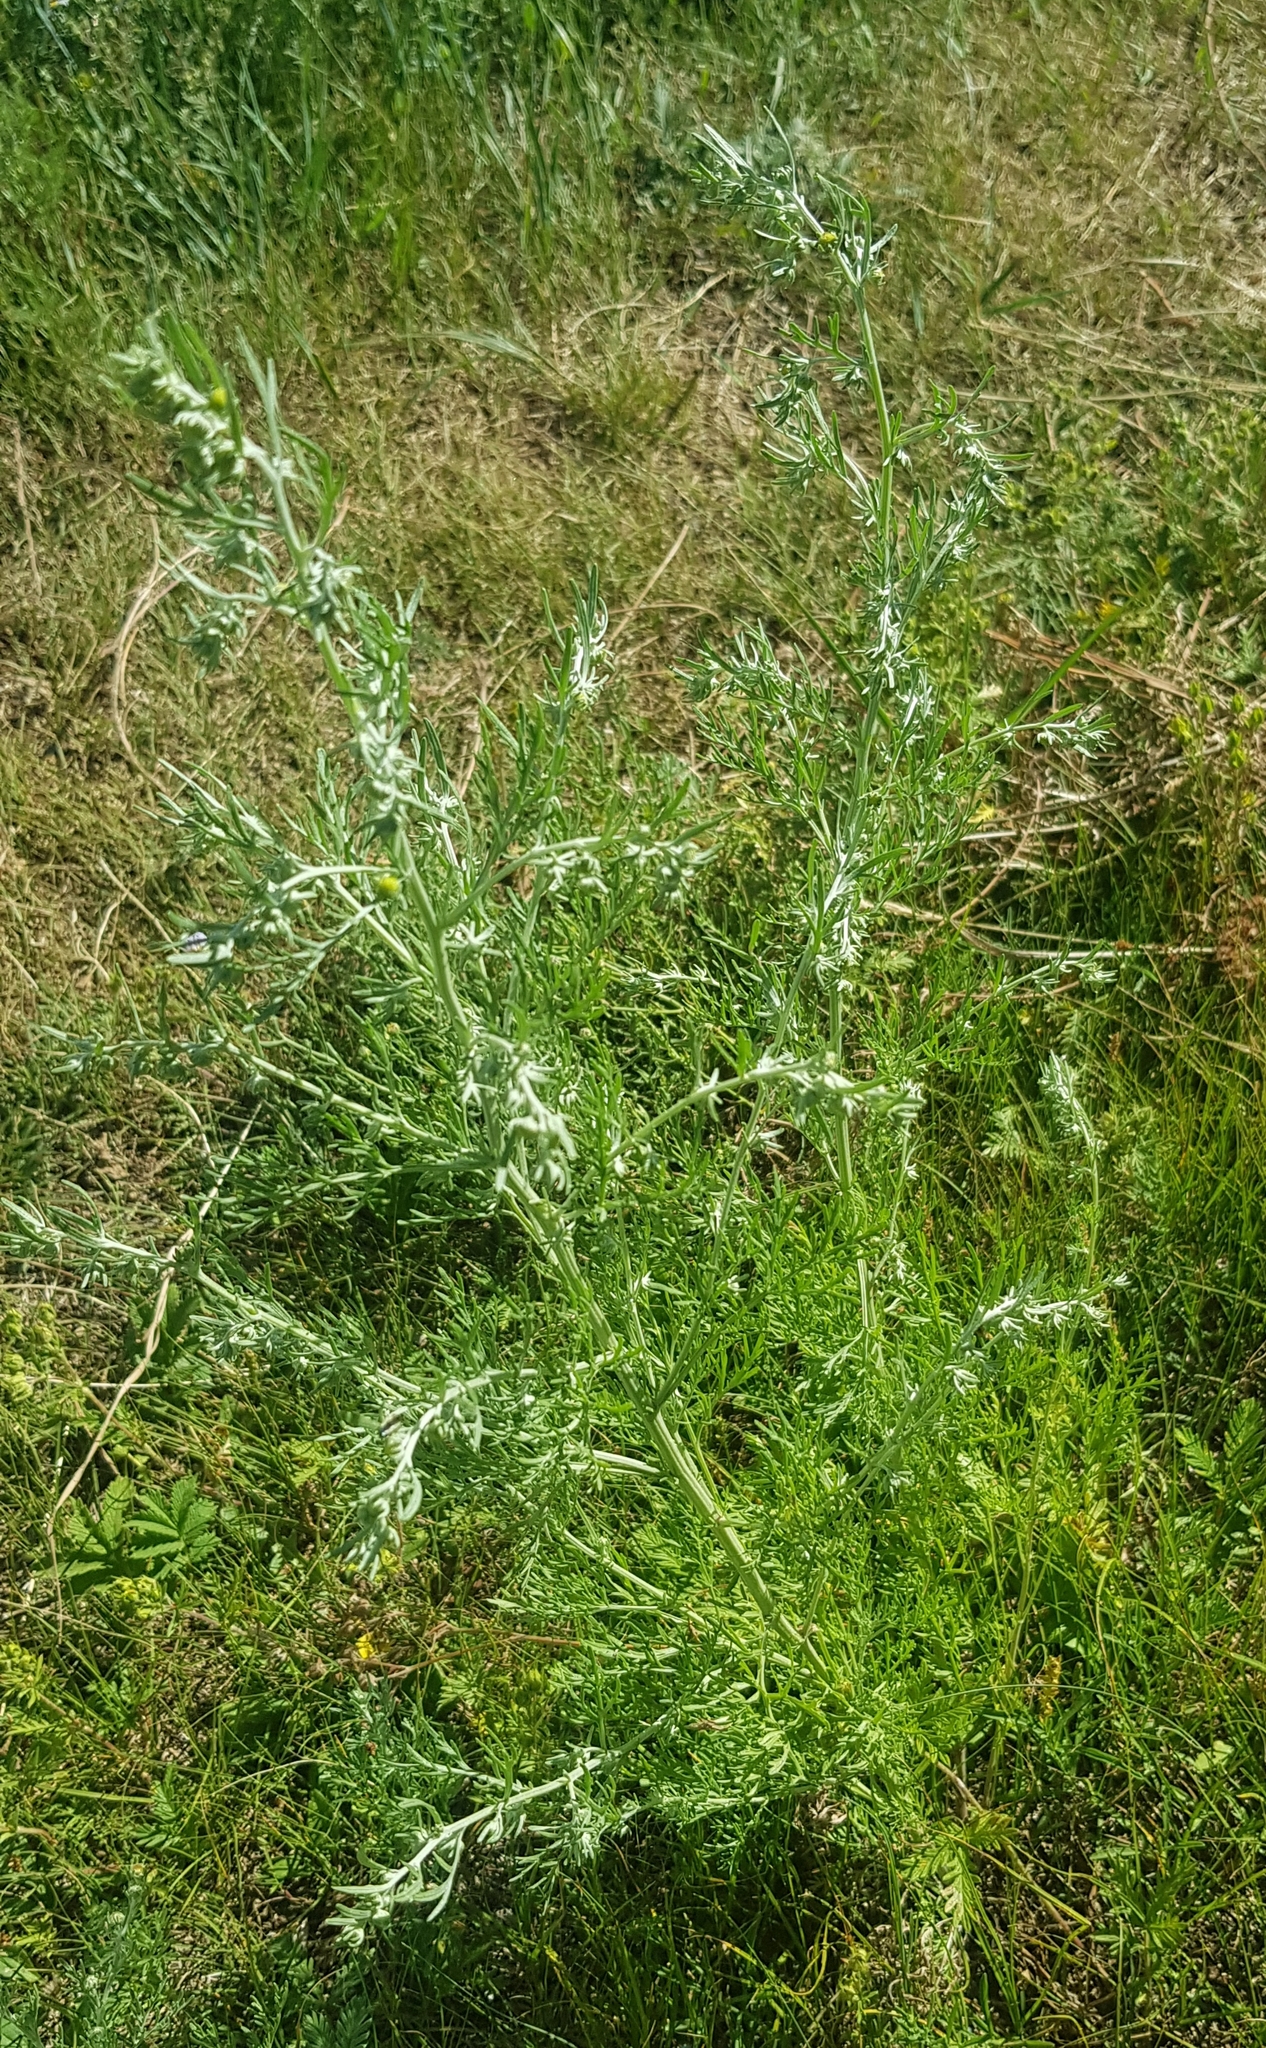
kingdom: Plantae
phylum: Tracheophyta
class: Magnoliopsida
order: Asterales
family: Asteraceae
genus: Artemisia
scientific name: Artemisia sieversiana
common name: Sieversian wormwood
